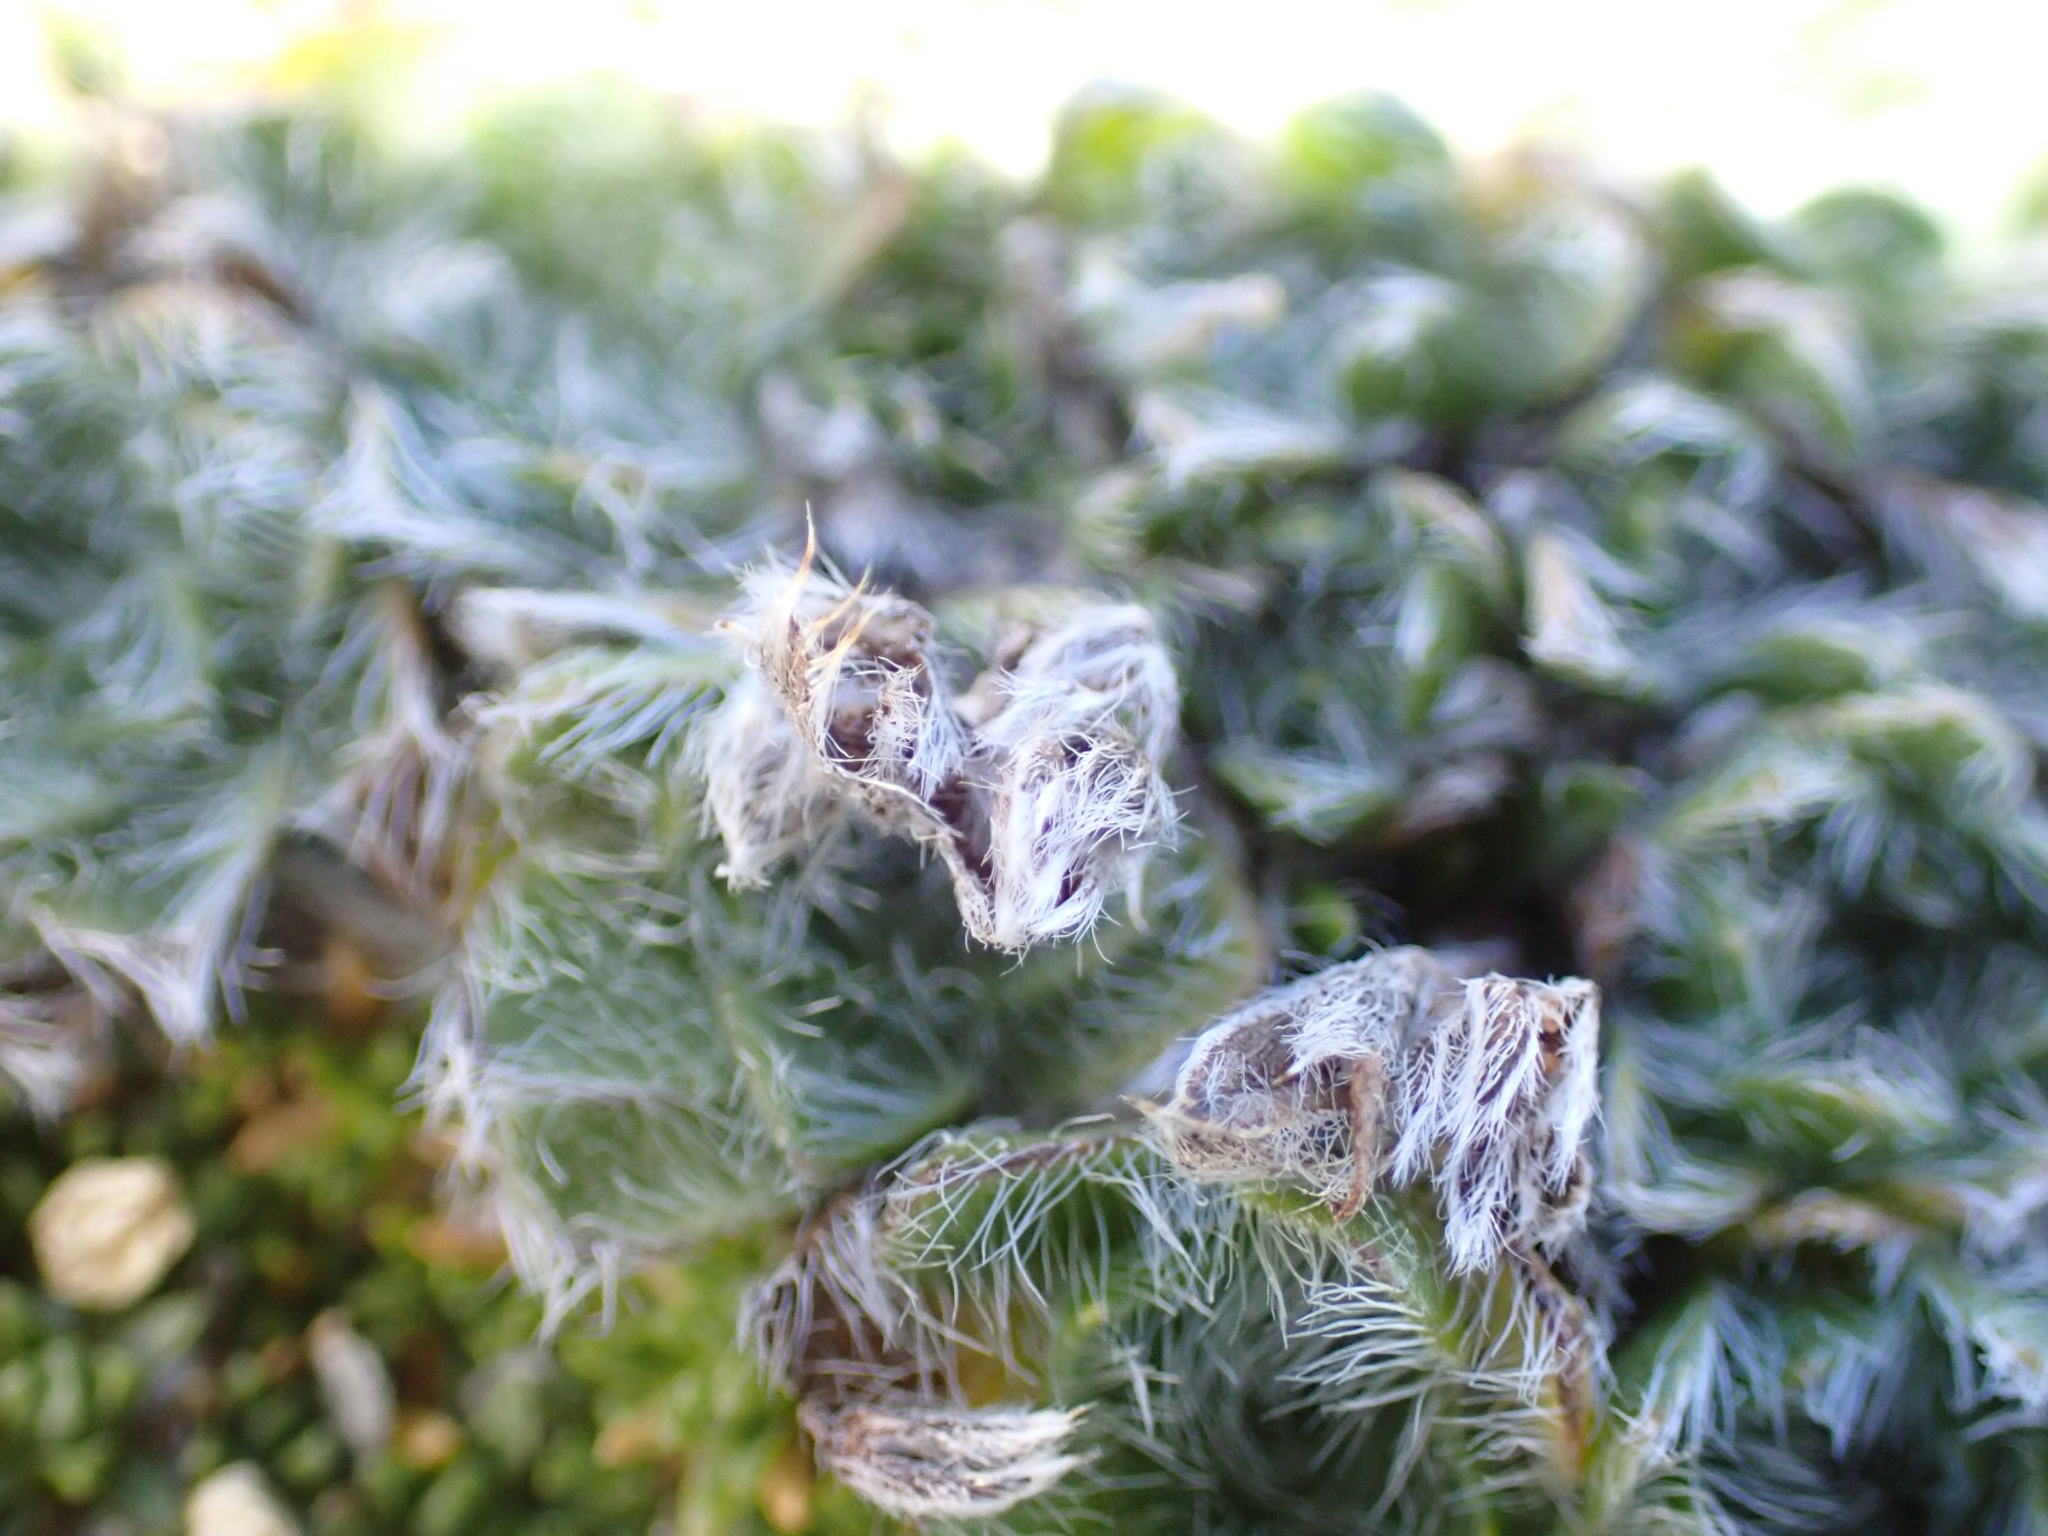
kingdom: Plantae
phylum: Tracheophyta
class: Magnoliopsida
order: Boraginales
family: Boraginaceae
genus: Eritrichium
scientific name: Eritrichium nanum
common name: King-of-the-alps
